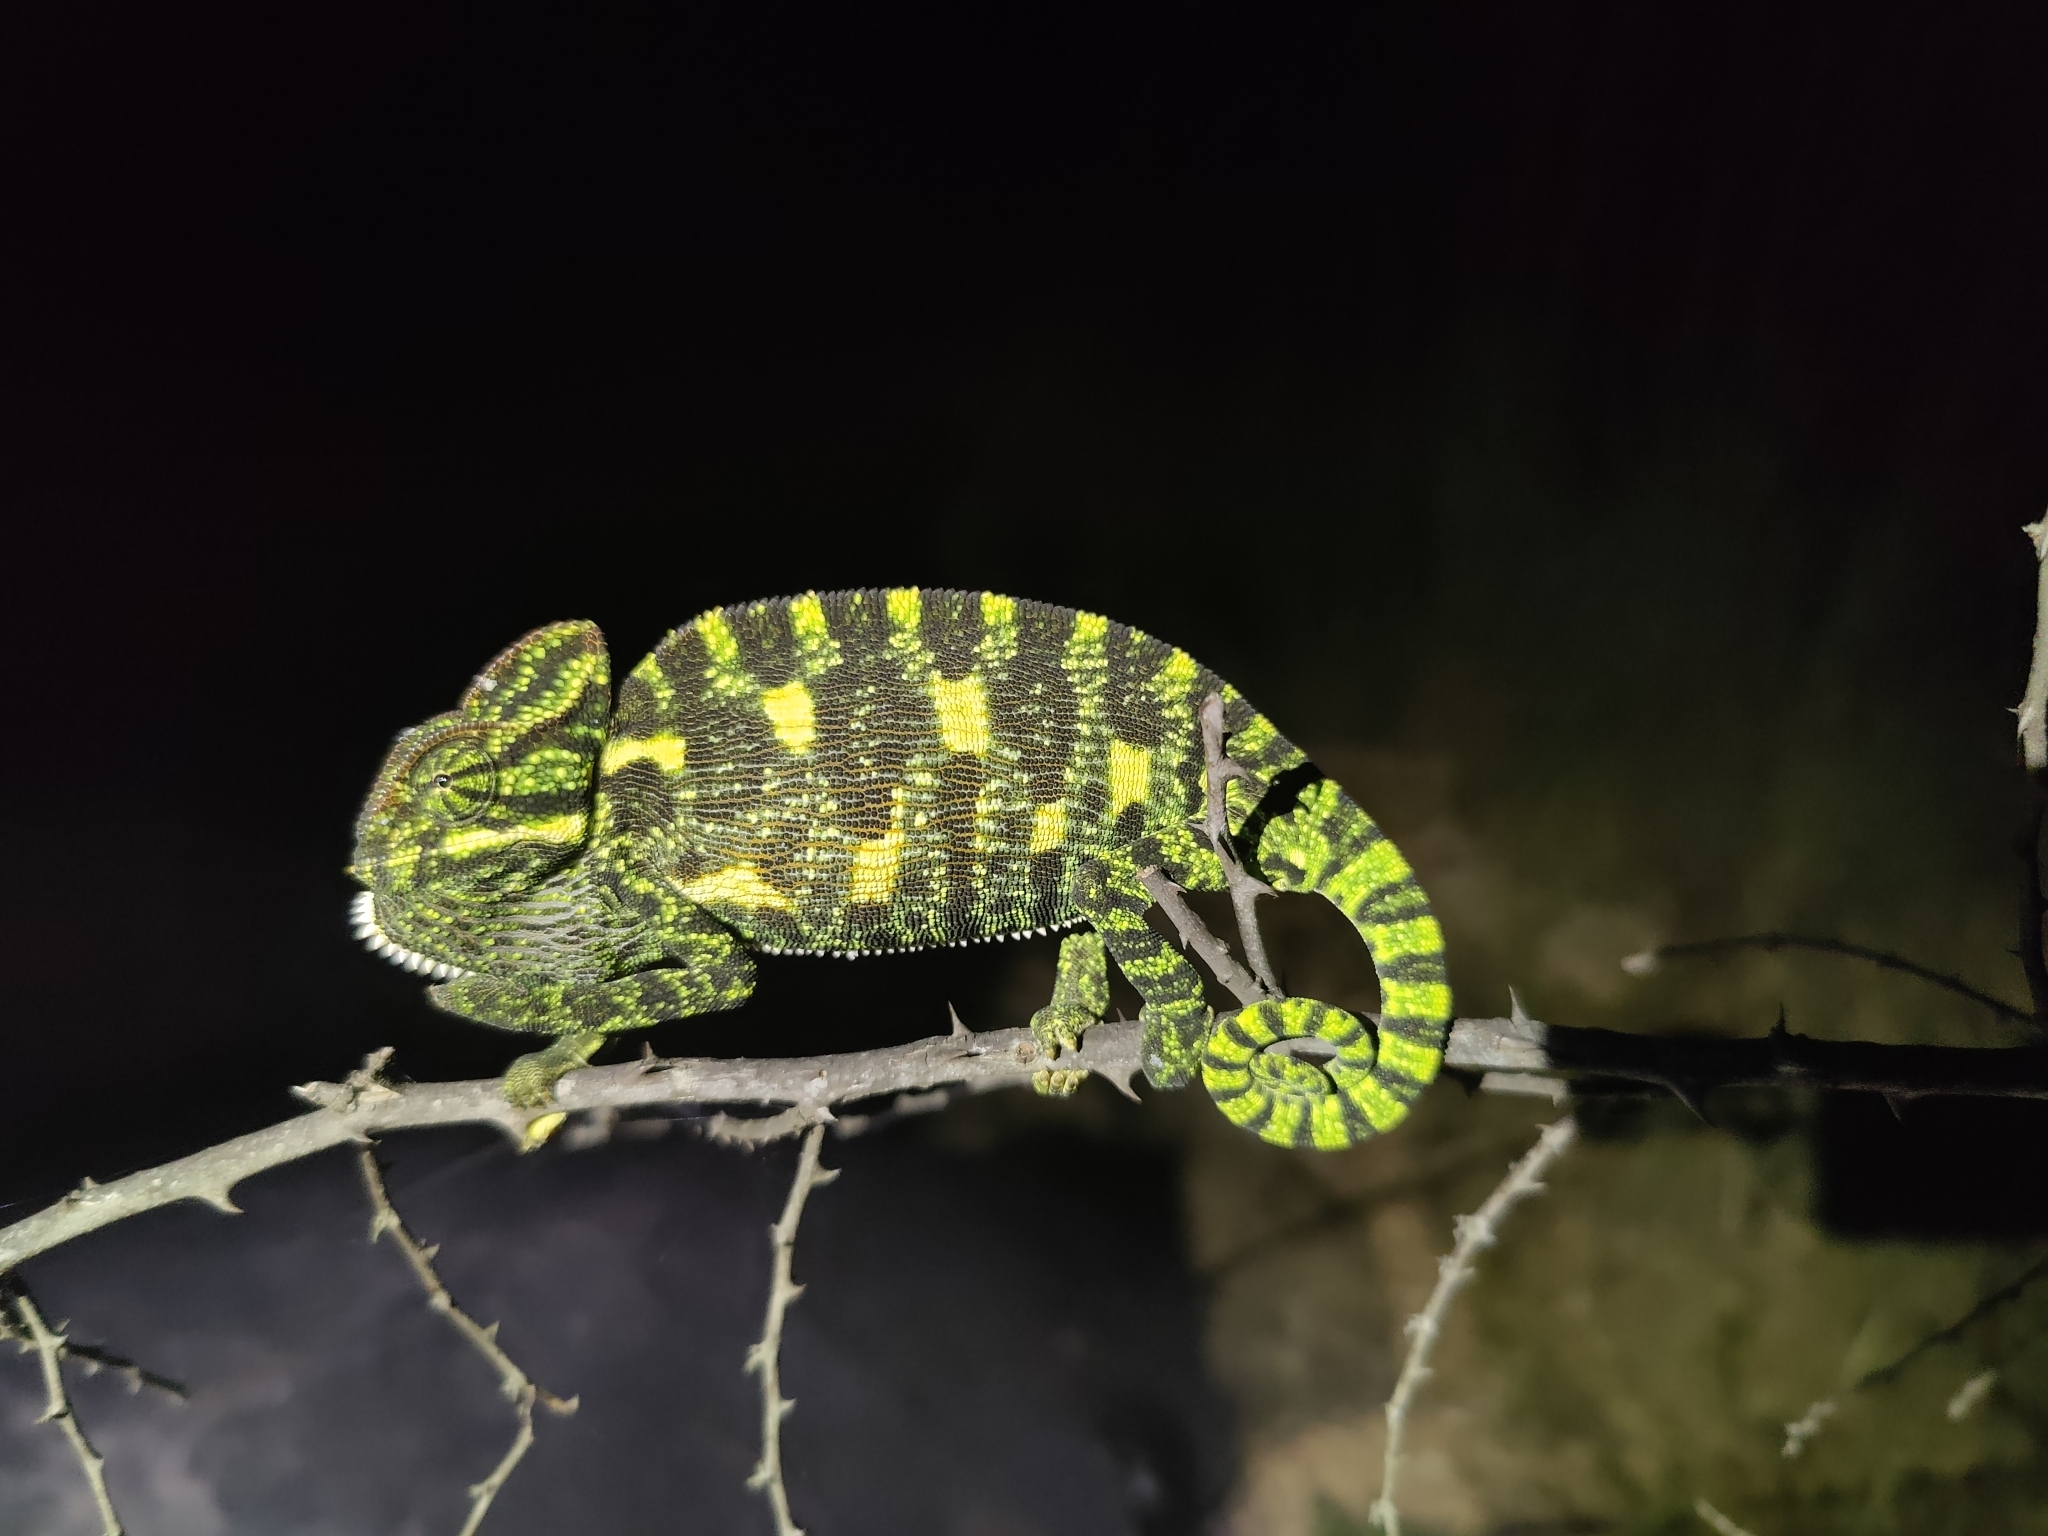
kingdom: Animalia
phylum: Chordata
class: Squamata
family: Chamaeleonidae
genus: Chamaeleo
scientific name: Chamaeleo zeylanicus
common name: Indian chameleon
